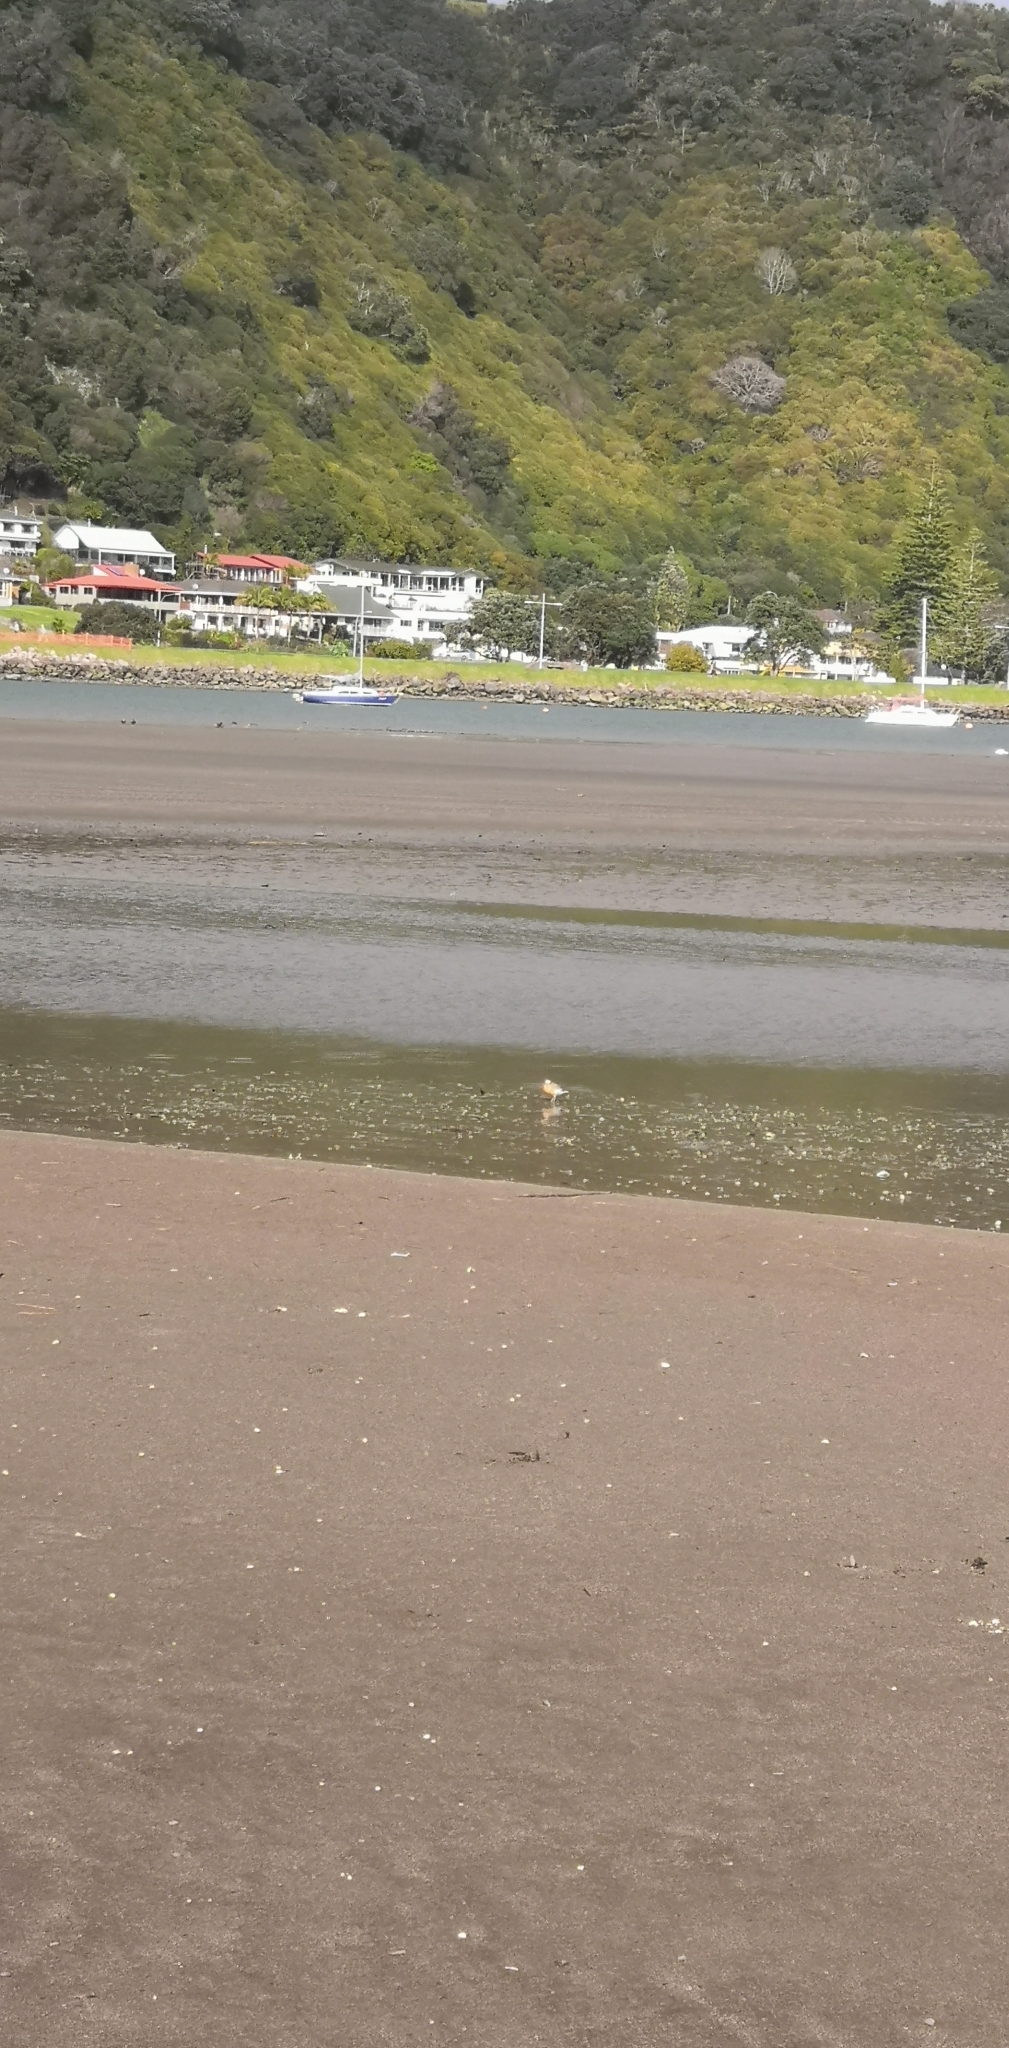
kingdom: Animalia
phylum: Chordata
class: Aves
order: Charadriiformes
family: Charadriidae
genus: Anarhynchus
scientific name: Anarhynchus
